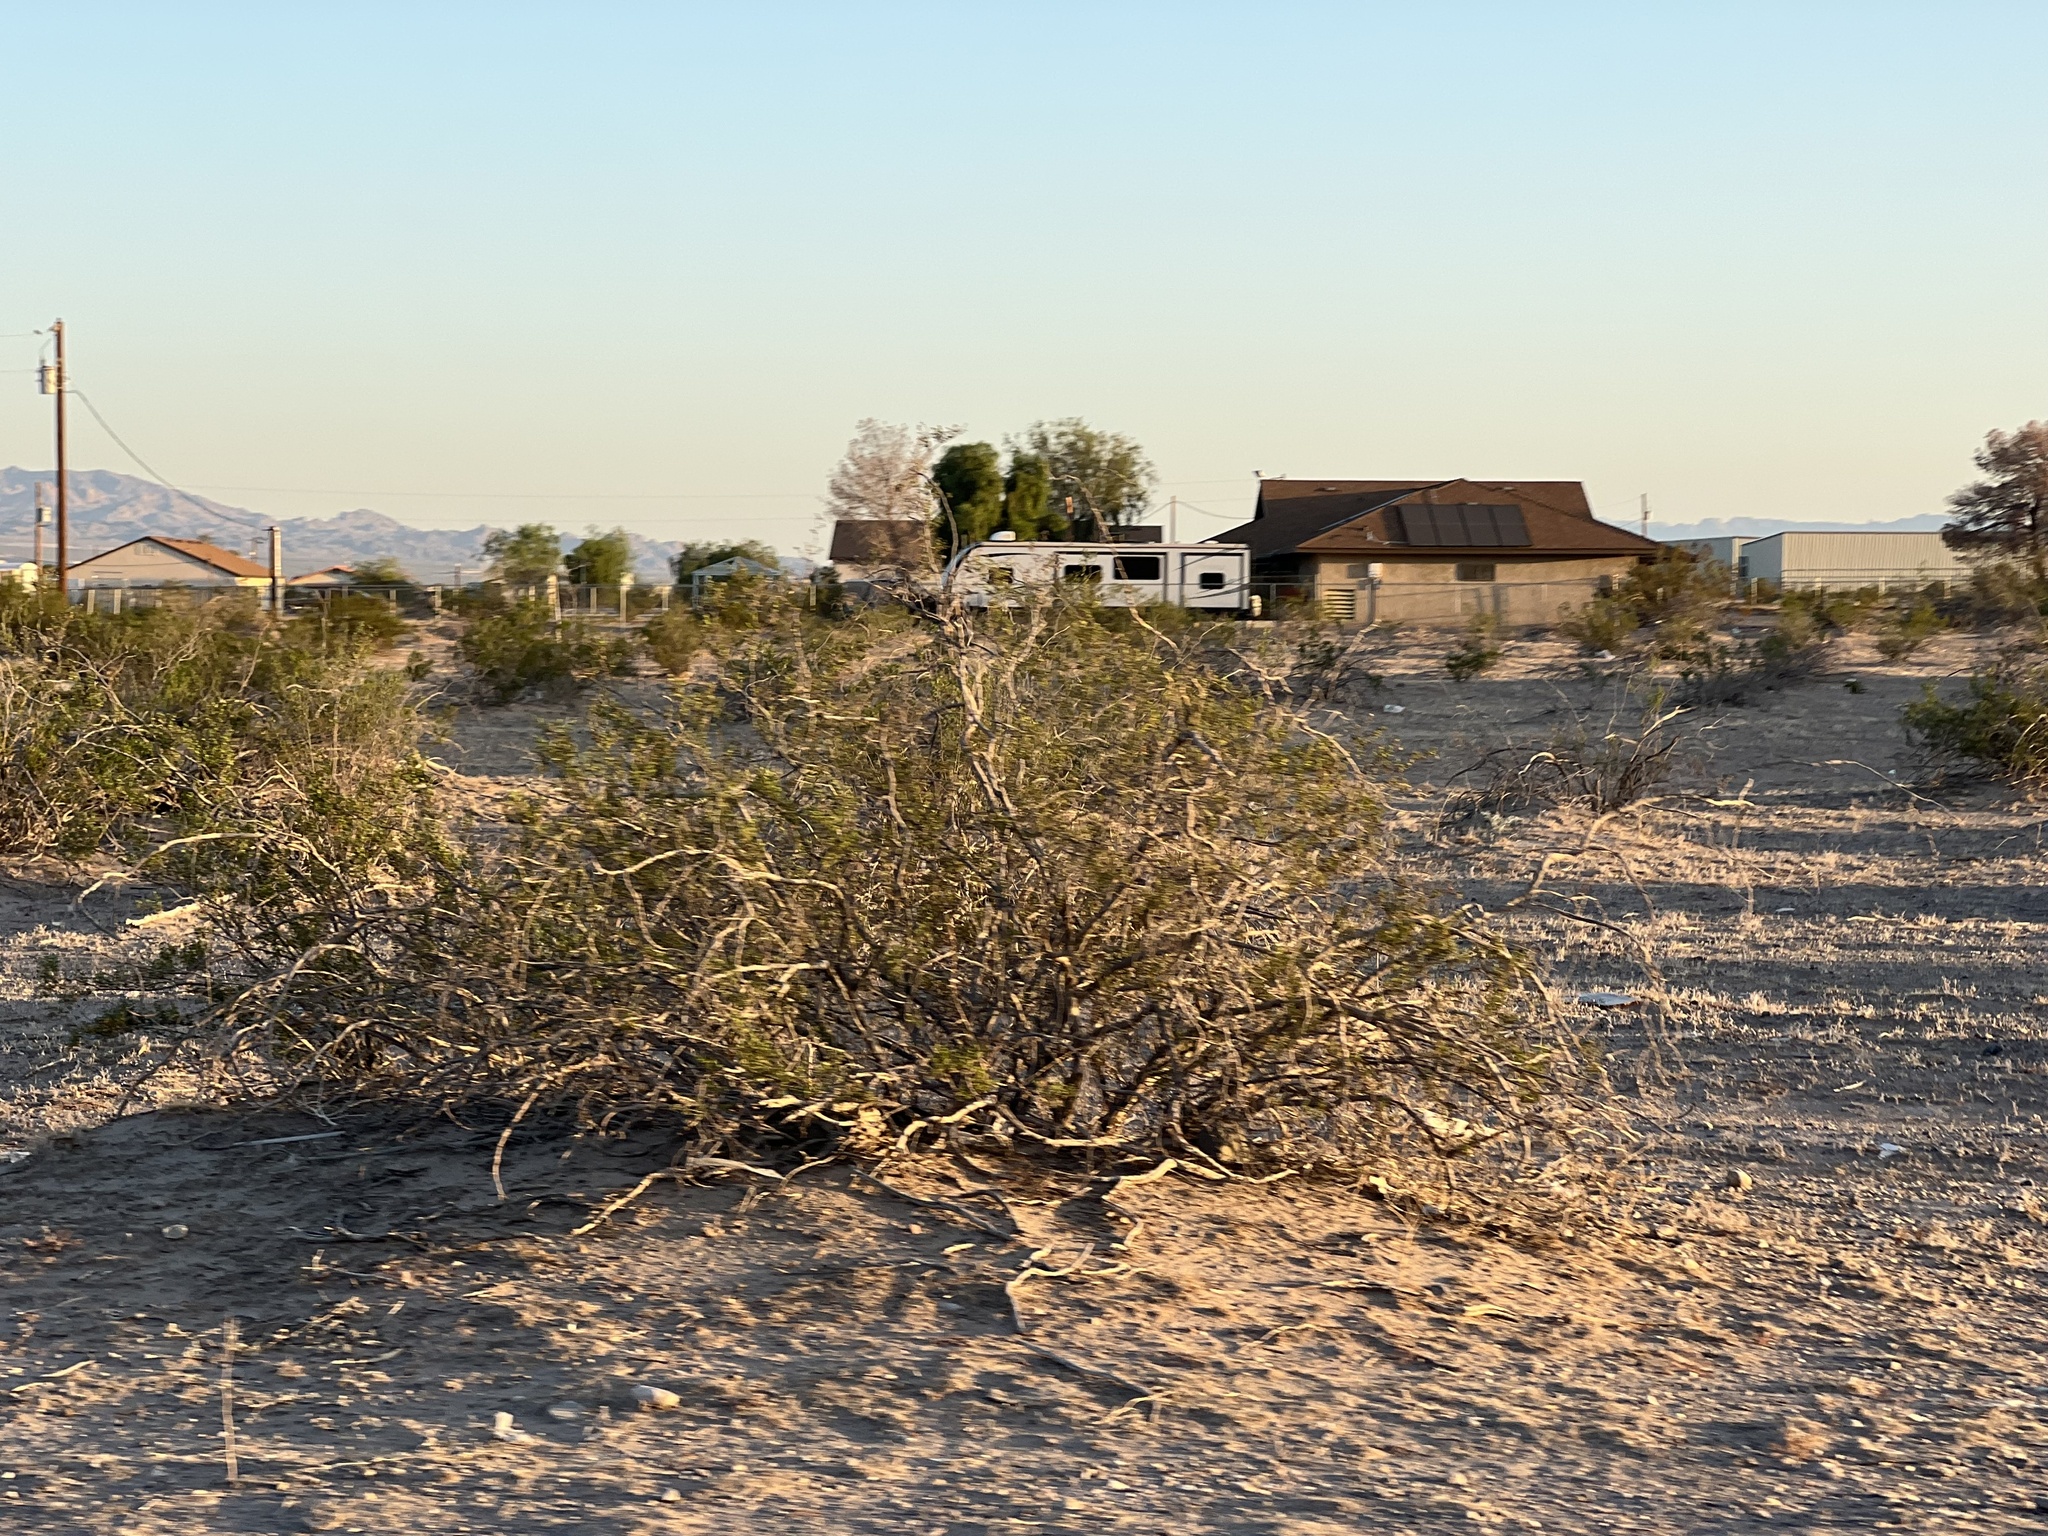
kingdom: Plantae
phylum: Tracheophyta
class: Magnoliopsida
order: Zygophyllales
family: Zygophyllaceae
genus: Larrea
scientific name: Larrea tridentata
